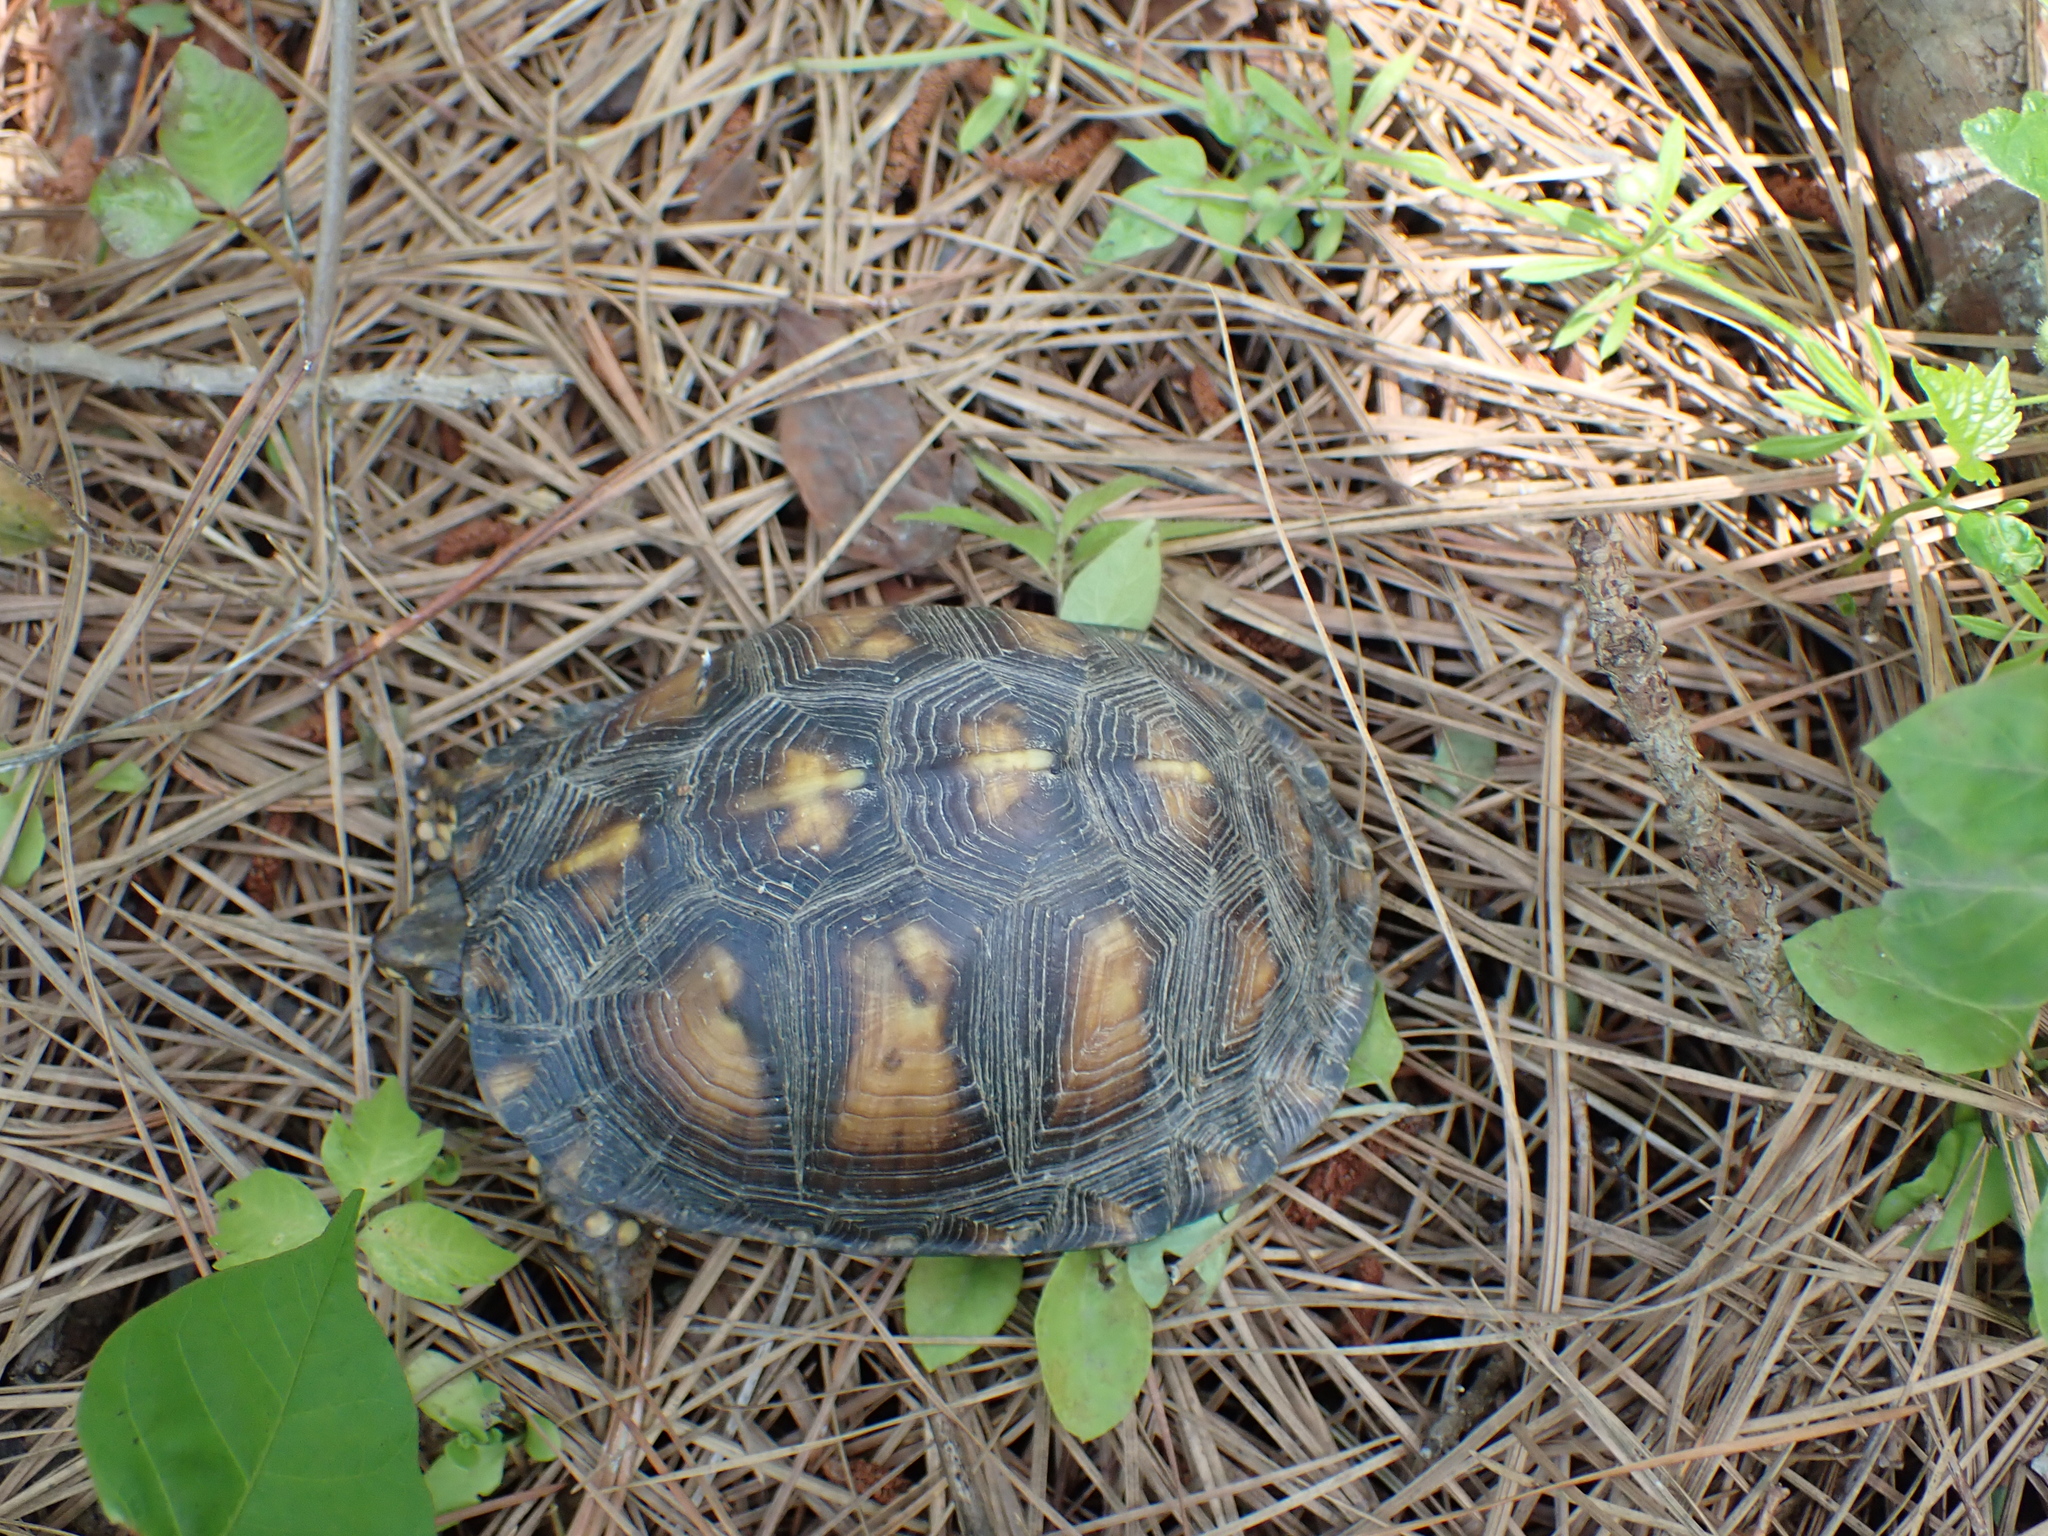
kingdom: Animalia
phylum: Chordata
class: Testudines
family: Emydidae
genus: Terrapene
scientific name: Terrapene carolina
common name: Common box turtle
